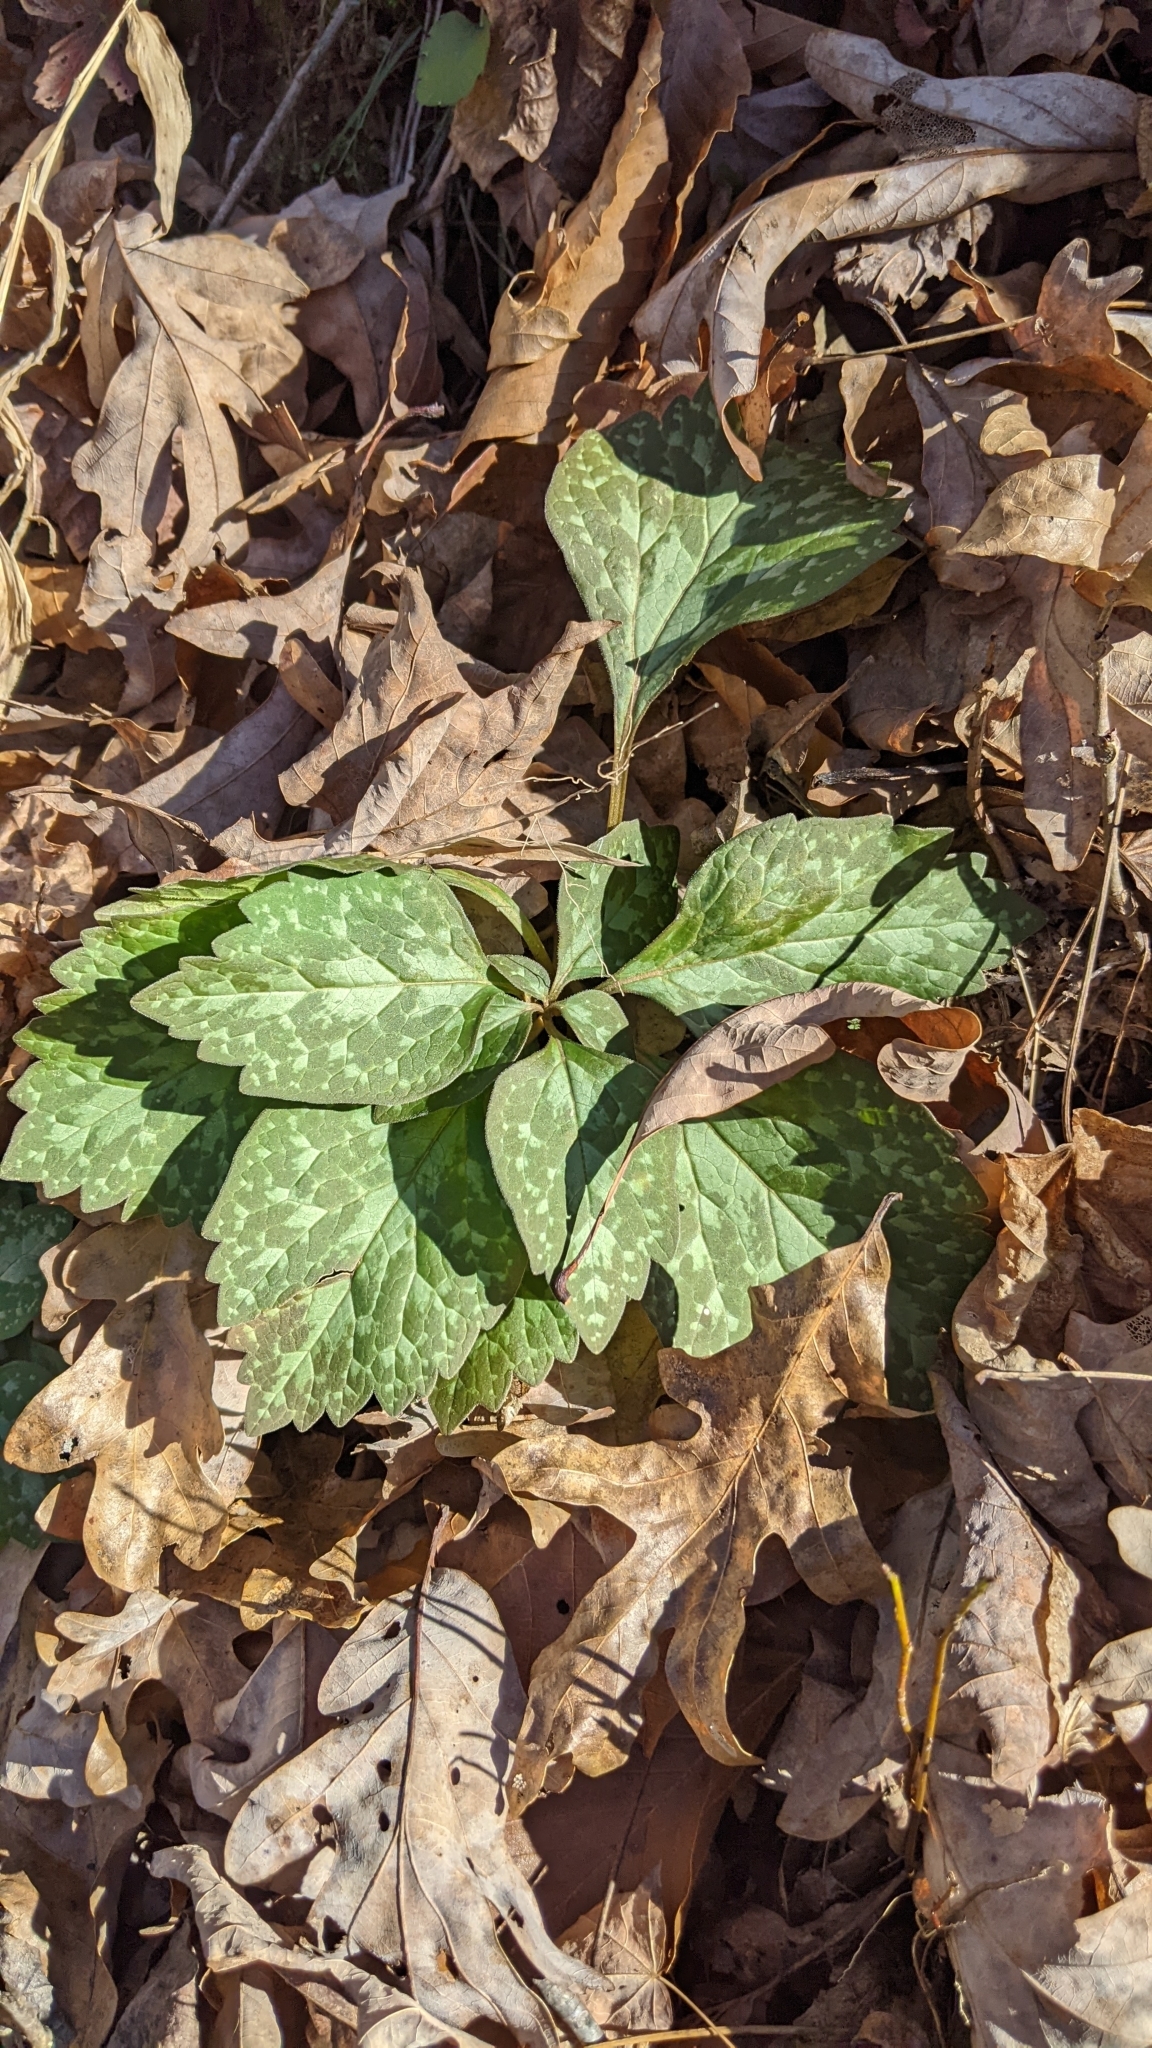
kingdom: Plantae
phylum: Tracheophyta
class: Magnoliopsida
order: Buxales
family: Buxaceae
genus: Pachysandra
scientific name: Pachysandra procumbens
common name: Mountain-spurge
